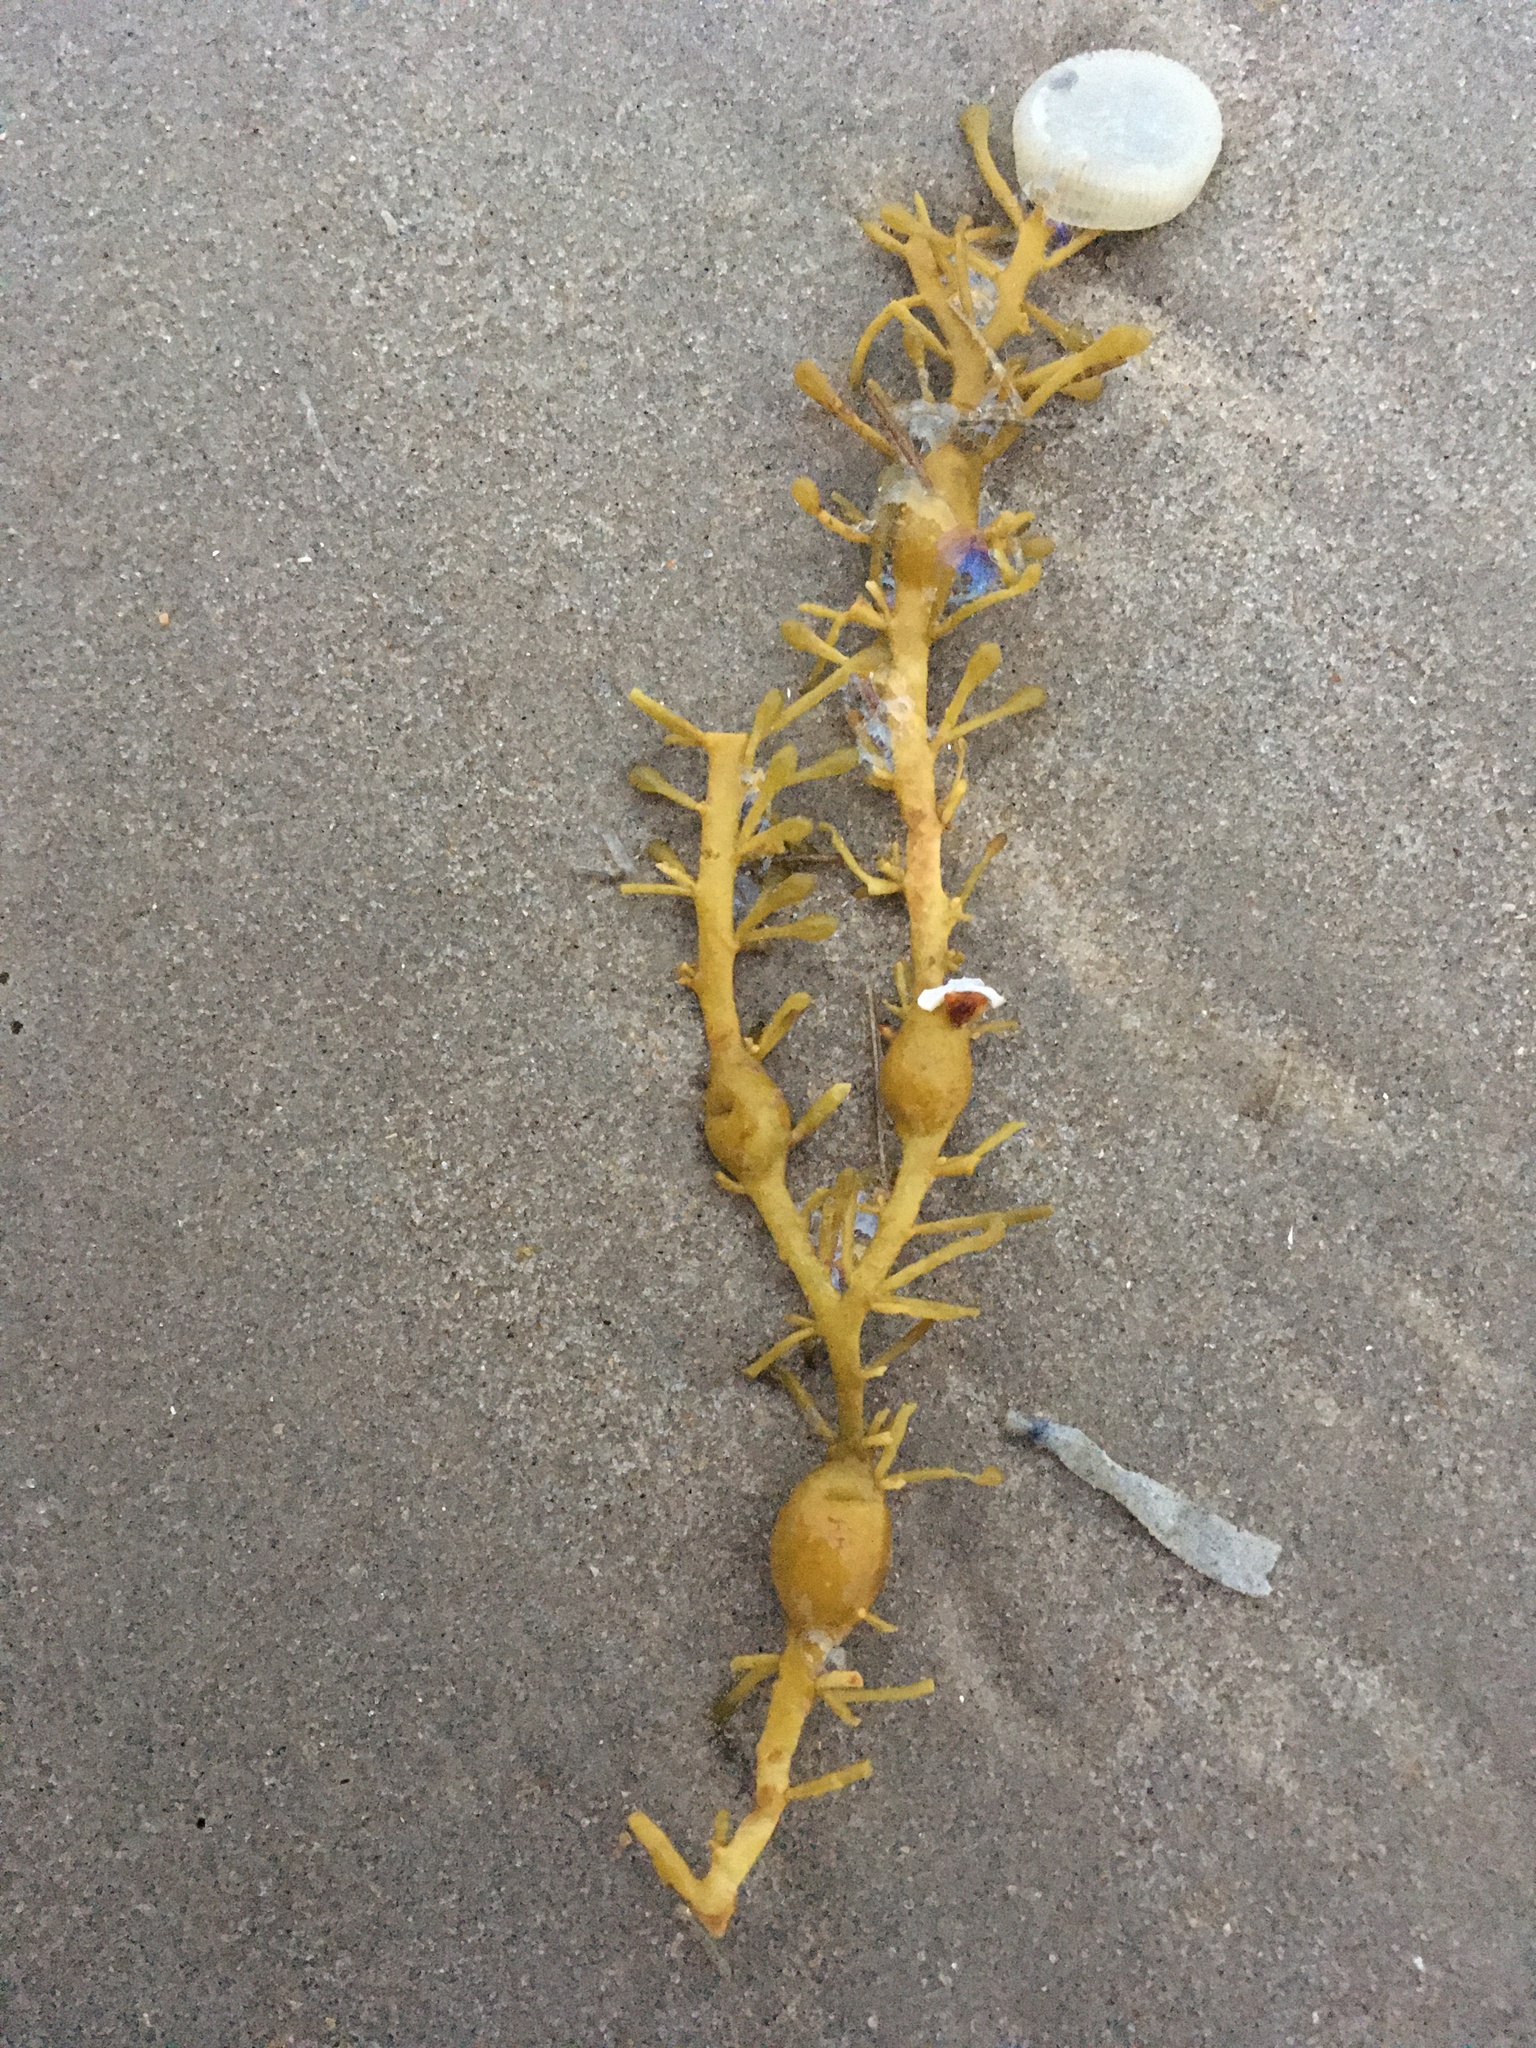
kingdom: Chromista
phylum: Ochrophyta
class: Phaeophyceae
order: Fucales
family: Fucaceae
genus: Ascophyllum
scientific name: Ascophyllum nodosum
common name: Knotted wrack
